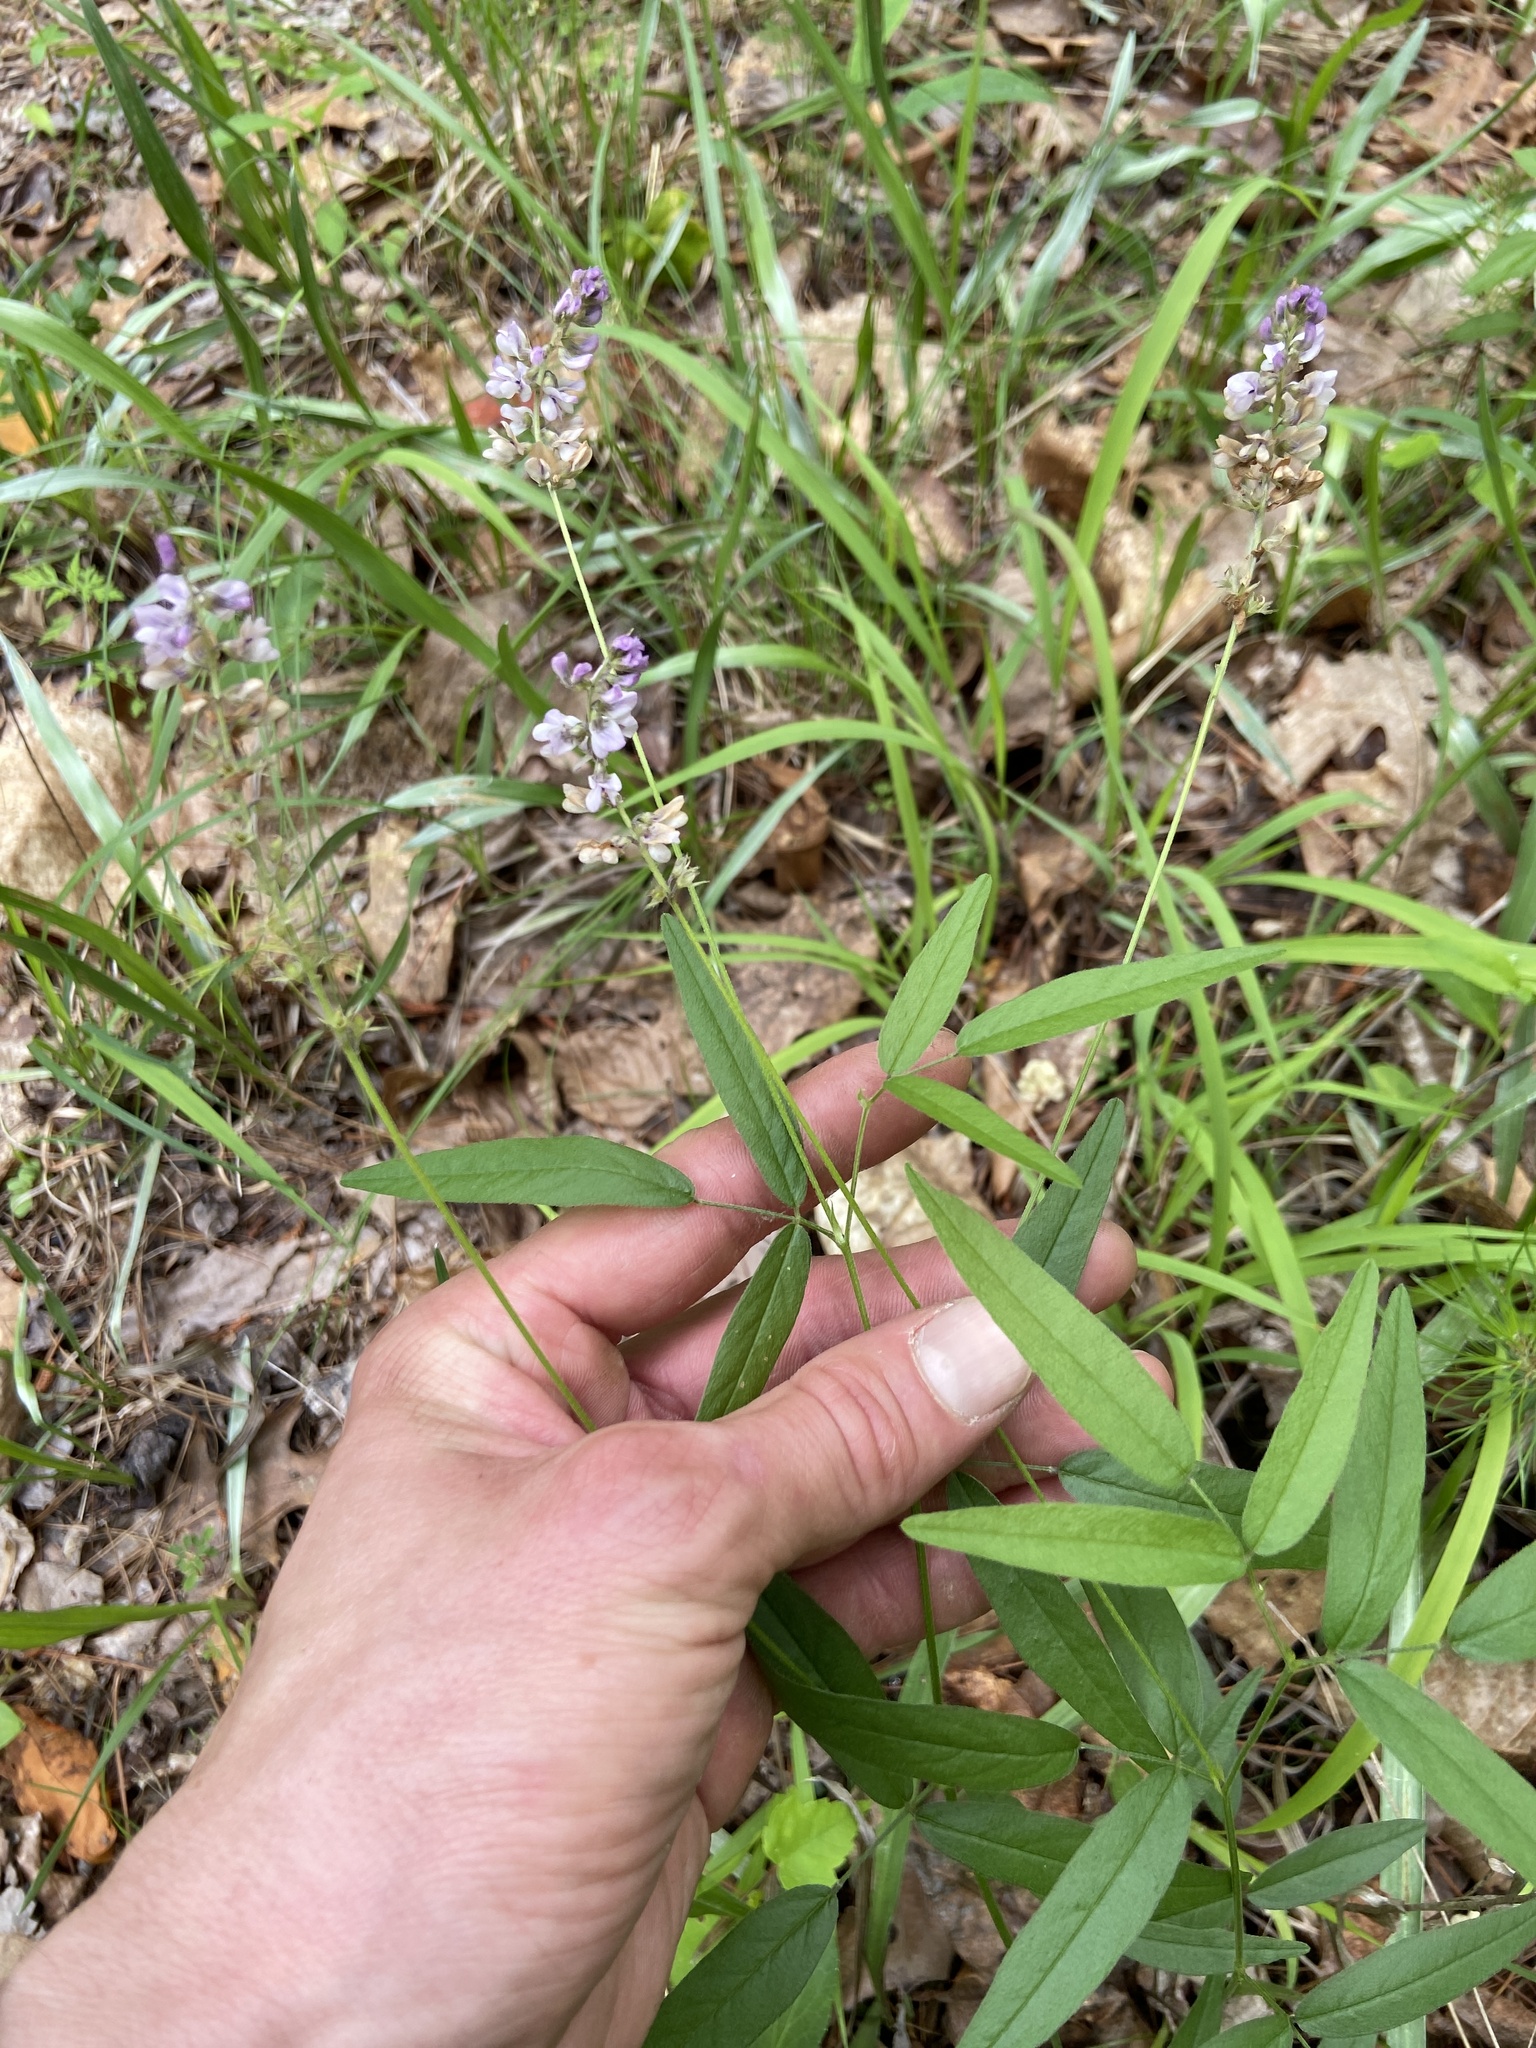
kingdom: Plantae
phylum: Tracheophyta
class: Magnoliopsida
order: Fabales
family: Fabaceae
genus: Orbexilum
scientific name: Orbexilum pedunculatum
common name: Sampson's snakeroot
